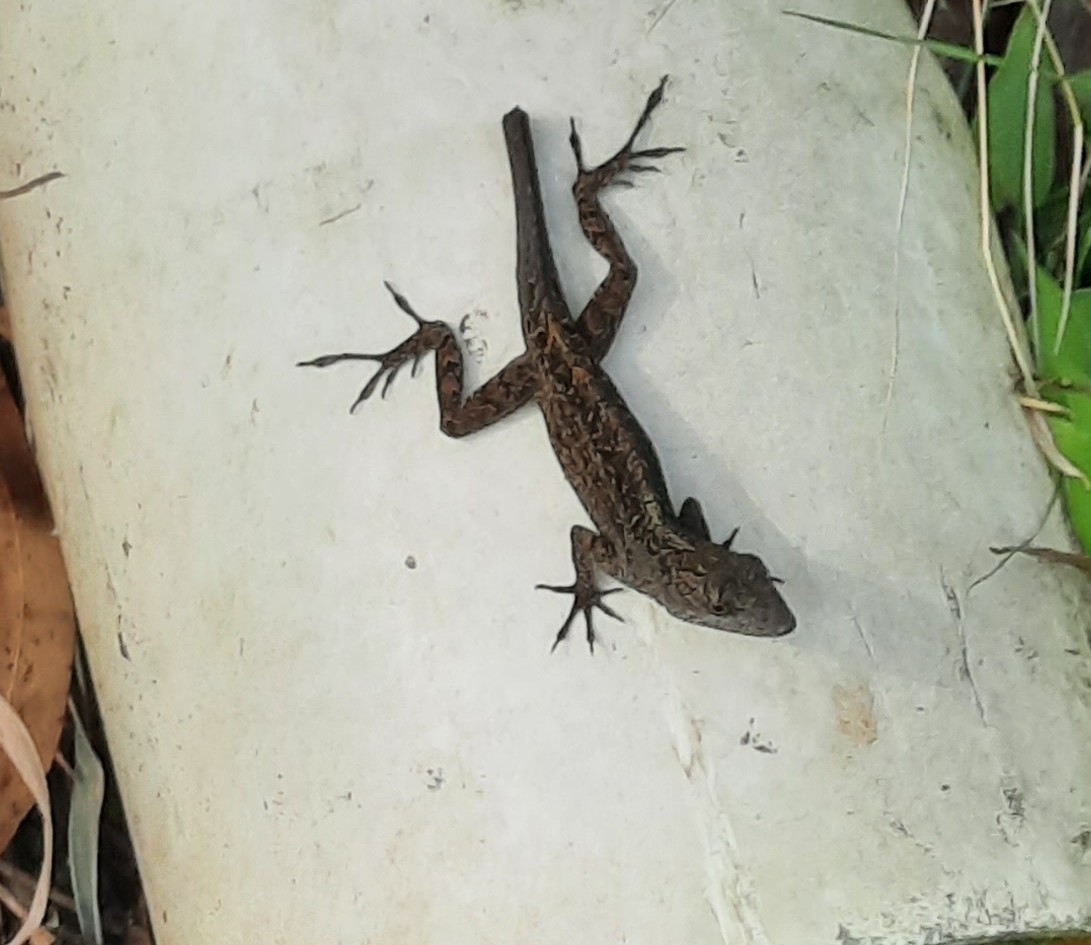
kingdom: Animalia
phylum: Chordata
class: Squamata
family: Dactyloidae
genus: Anolis
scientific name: Anolis sagrei
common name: Brown anole
